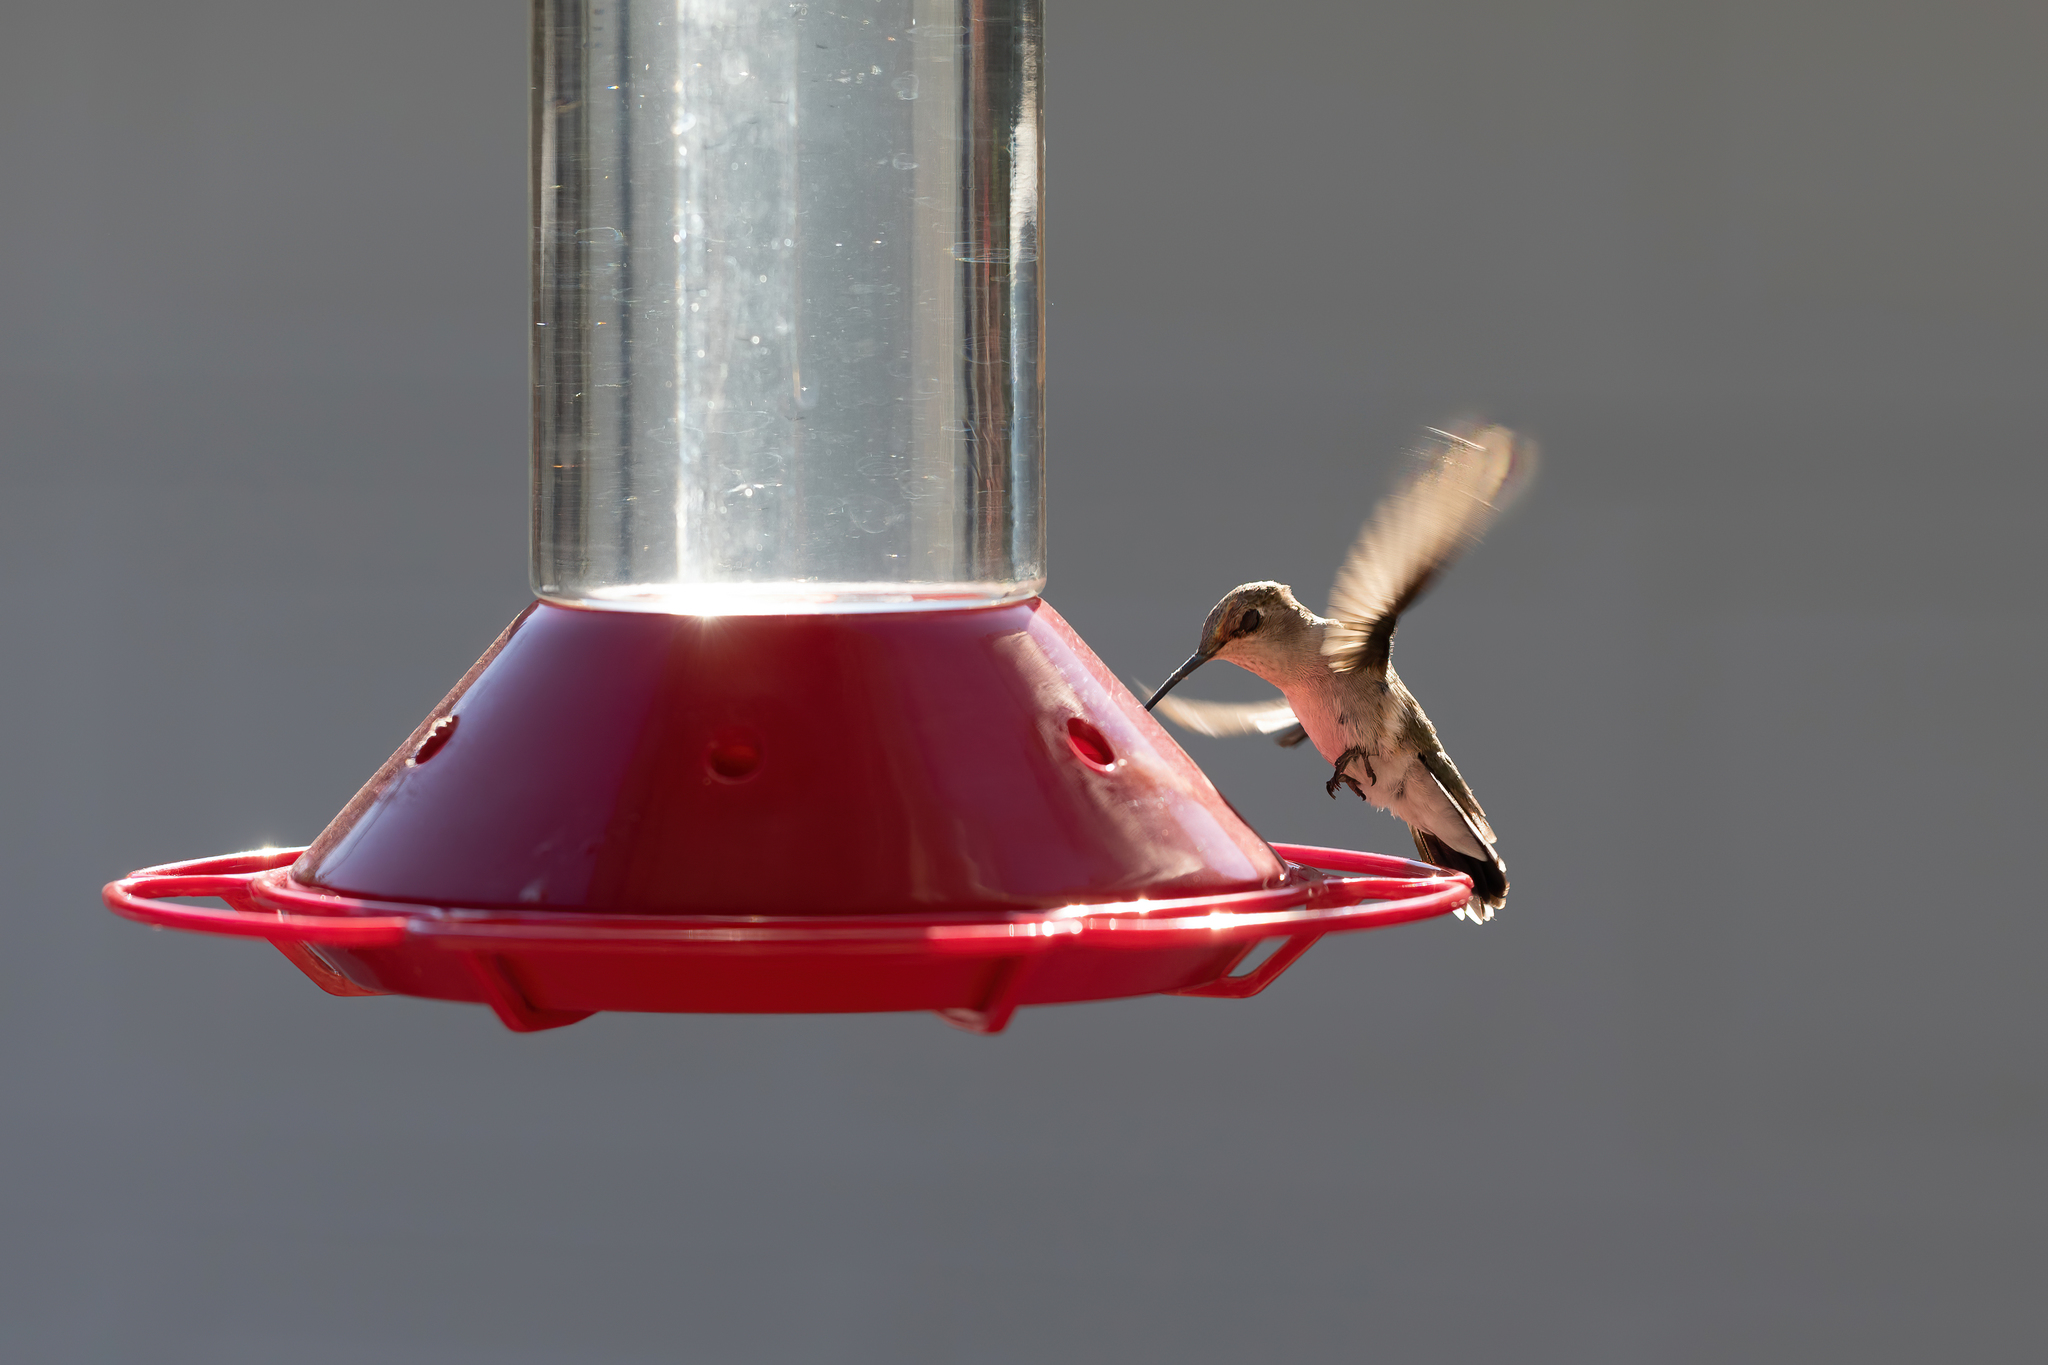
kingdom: Animalia
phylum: Chordata
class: Aves
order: Apodiformes
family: Trochilidae
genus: Archilochus
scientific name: Archilochus alexandri
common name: Black-chinned hummingbird
